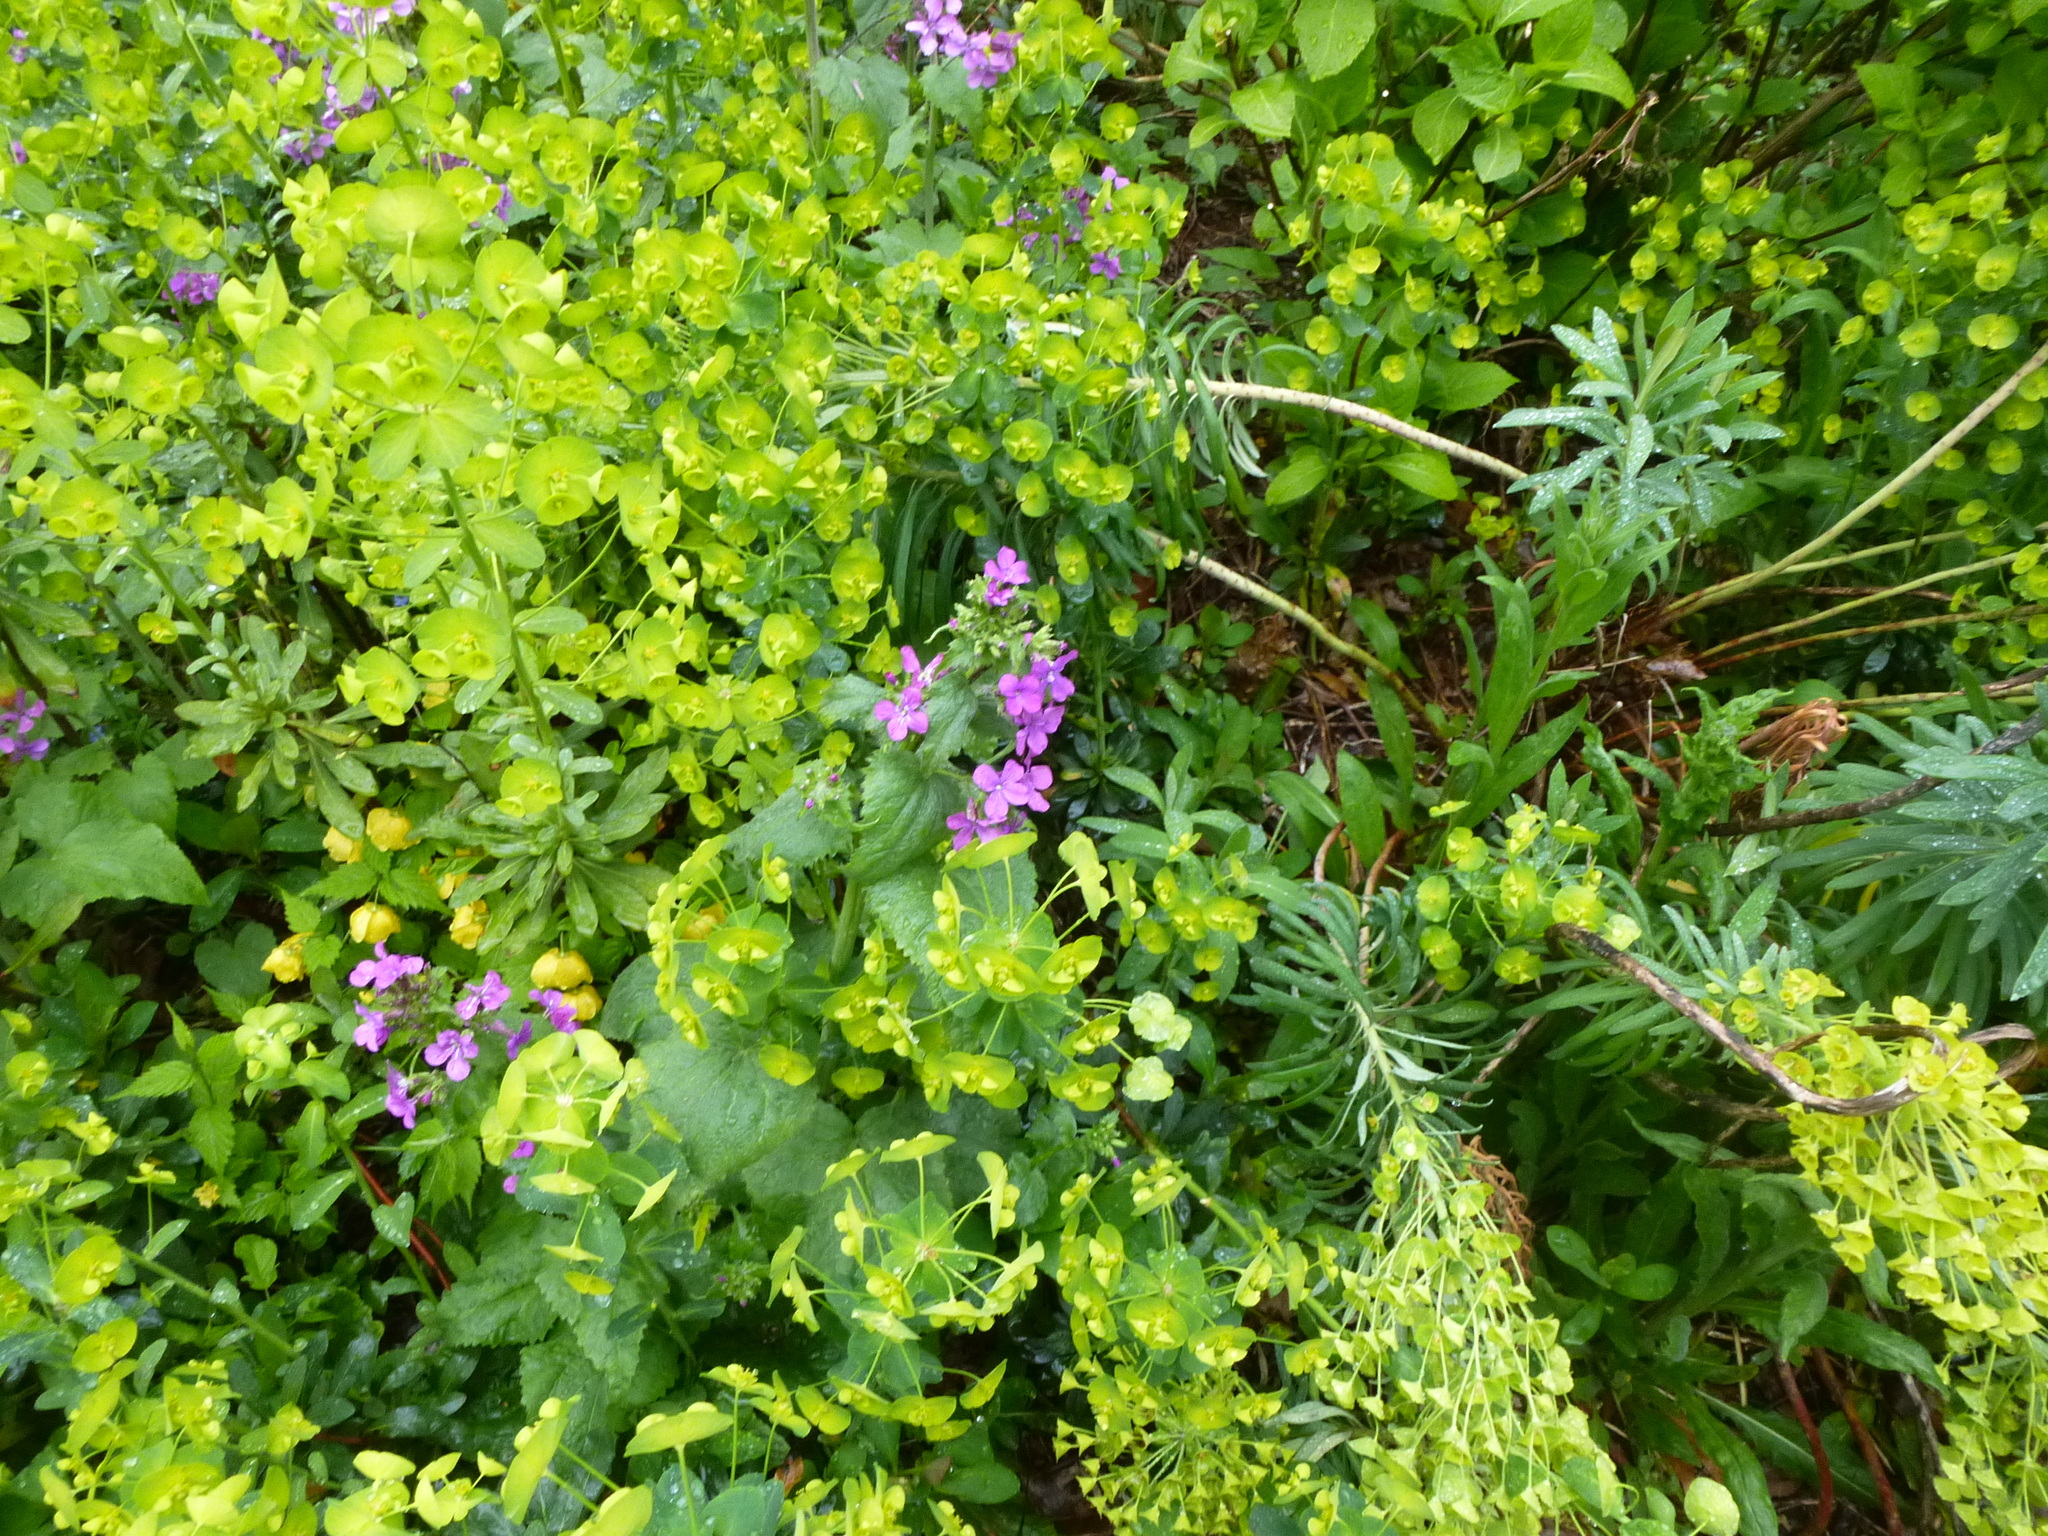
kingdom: Plantae
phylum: Tracheophyta
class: Magnoliopsida
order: Brassicales
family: Brassicaceae
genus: Lunaria
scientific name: Lunaria annua
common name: Honesty
